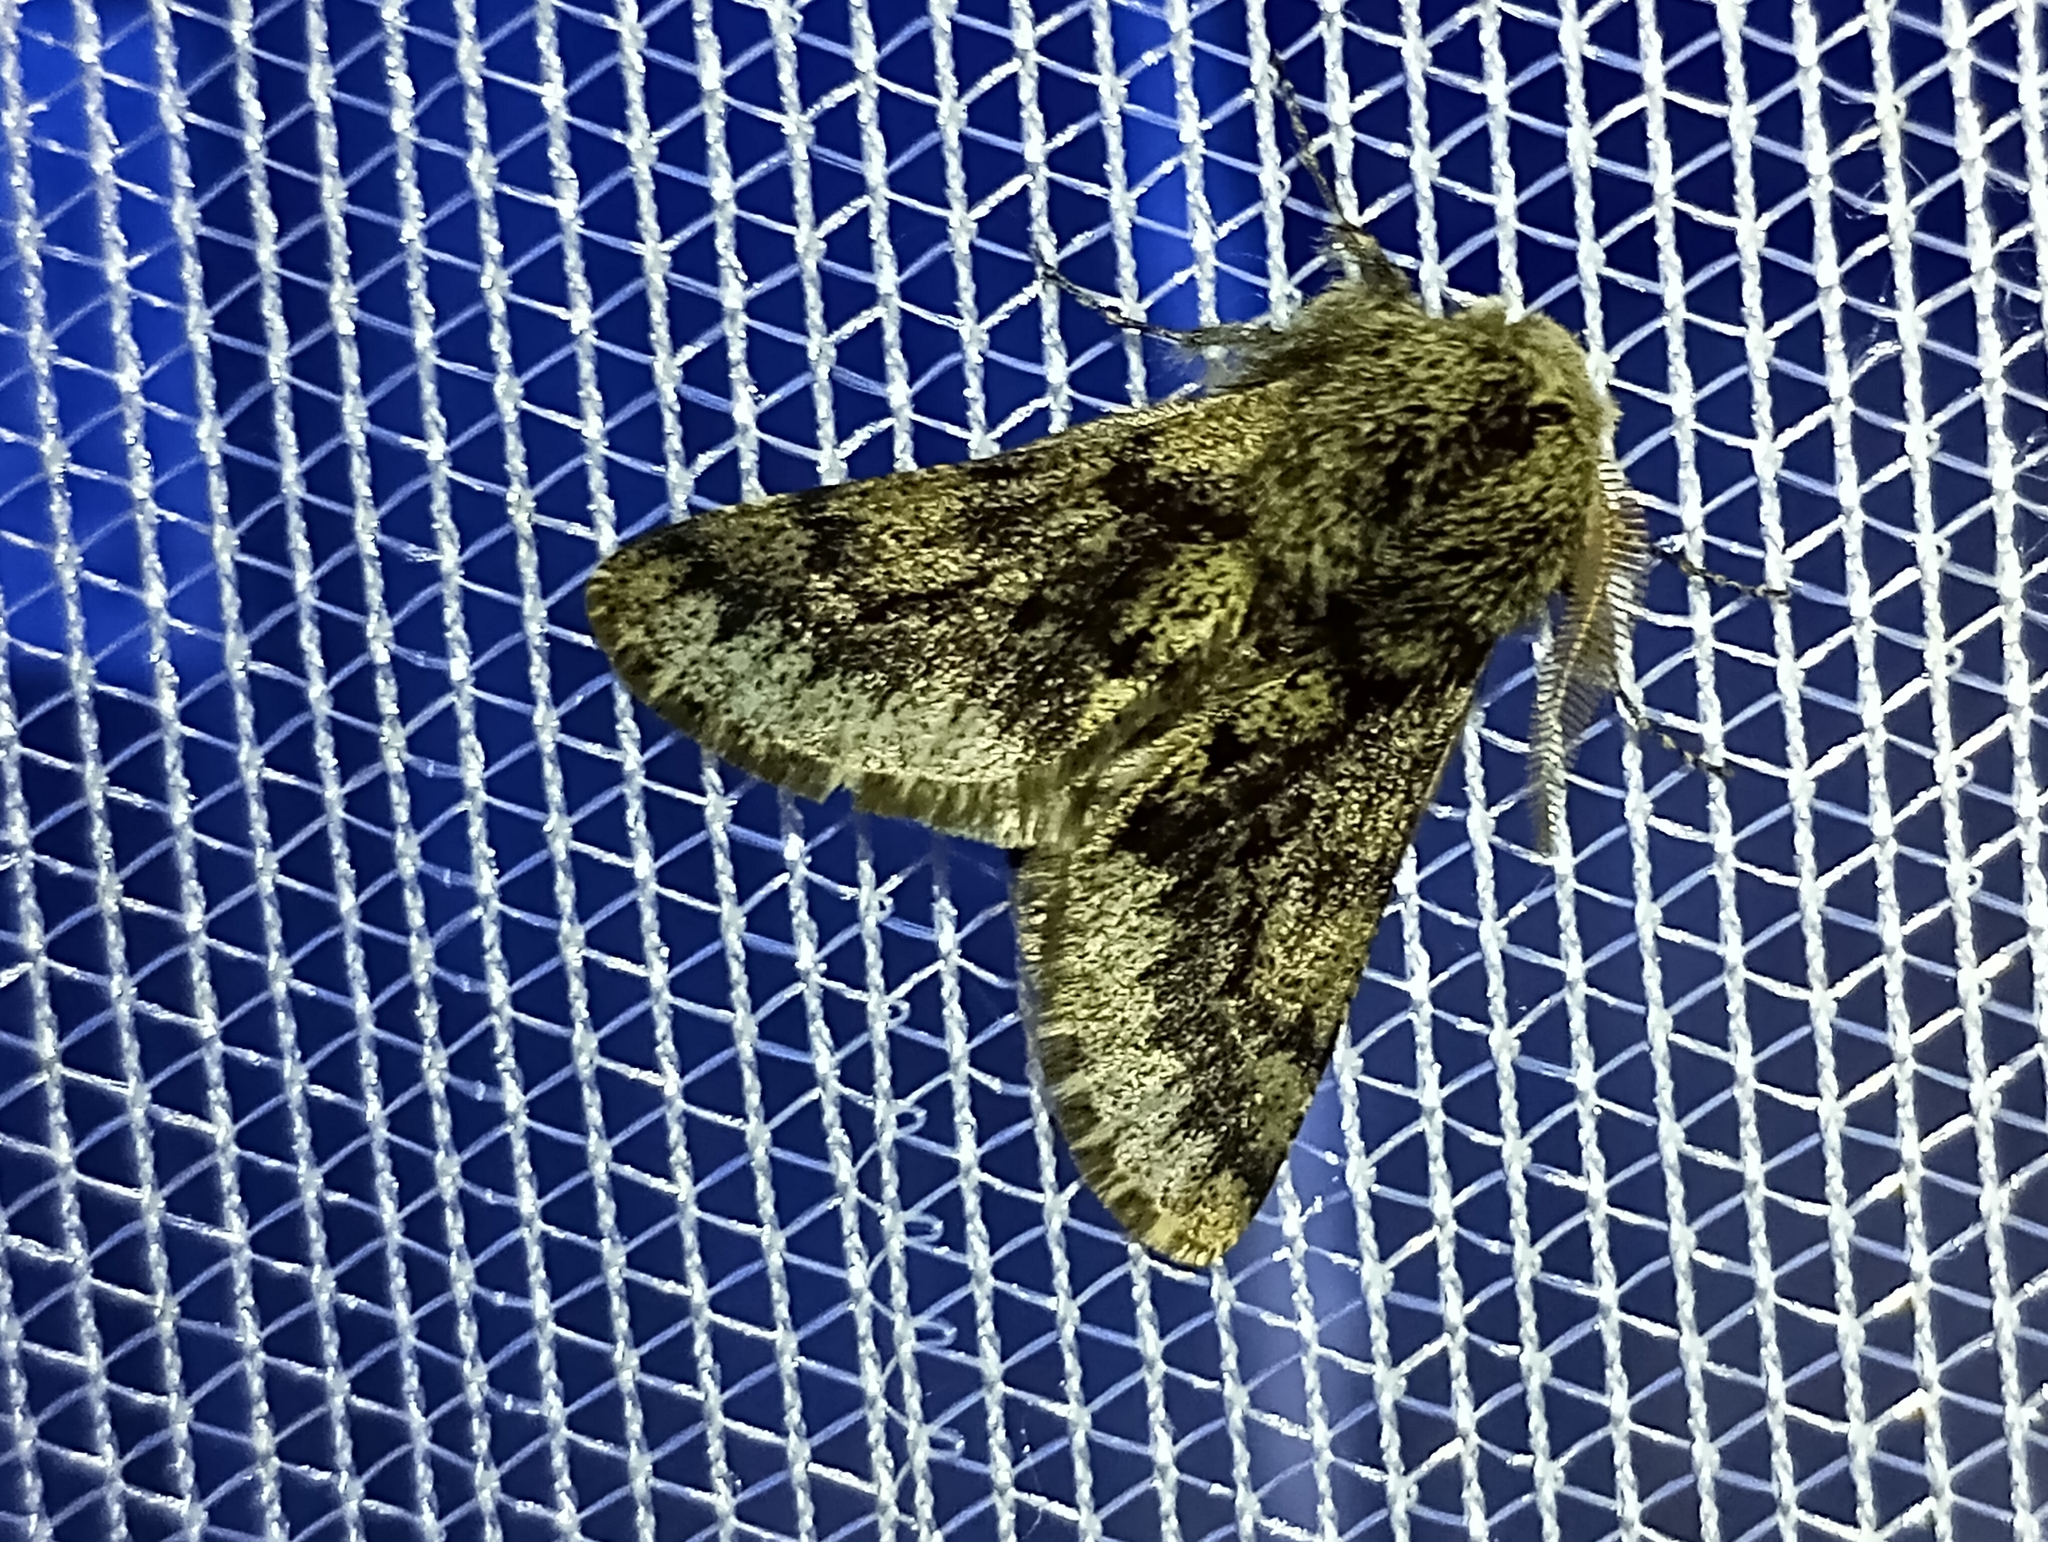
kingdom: Animalia
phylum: Arthropoda
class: Insecta
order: Lepidoptera
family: Geometridae
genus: Apocheima
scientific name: Apocheima hispidaria
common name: Small brindled beauty
